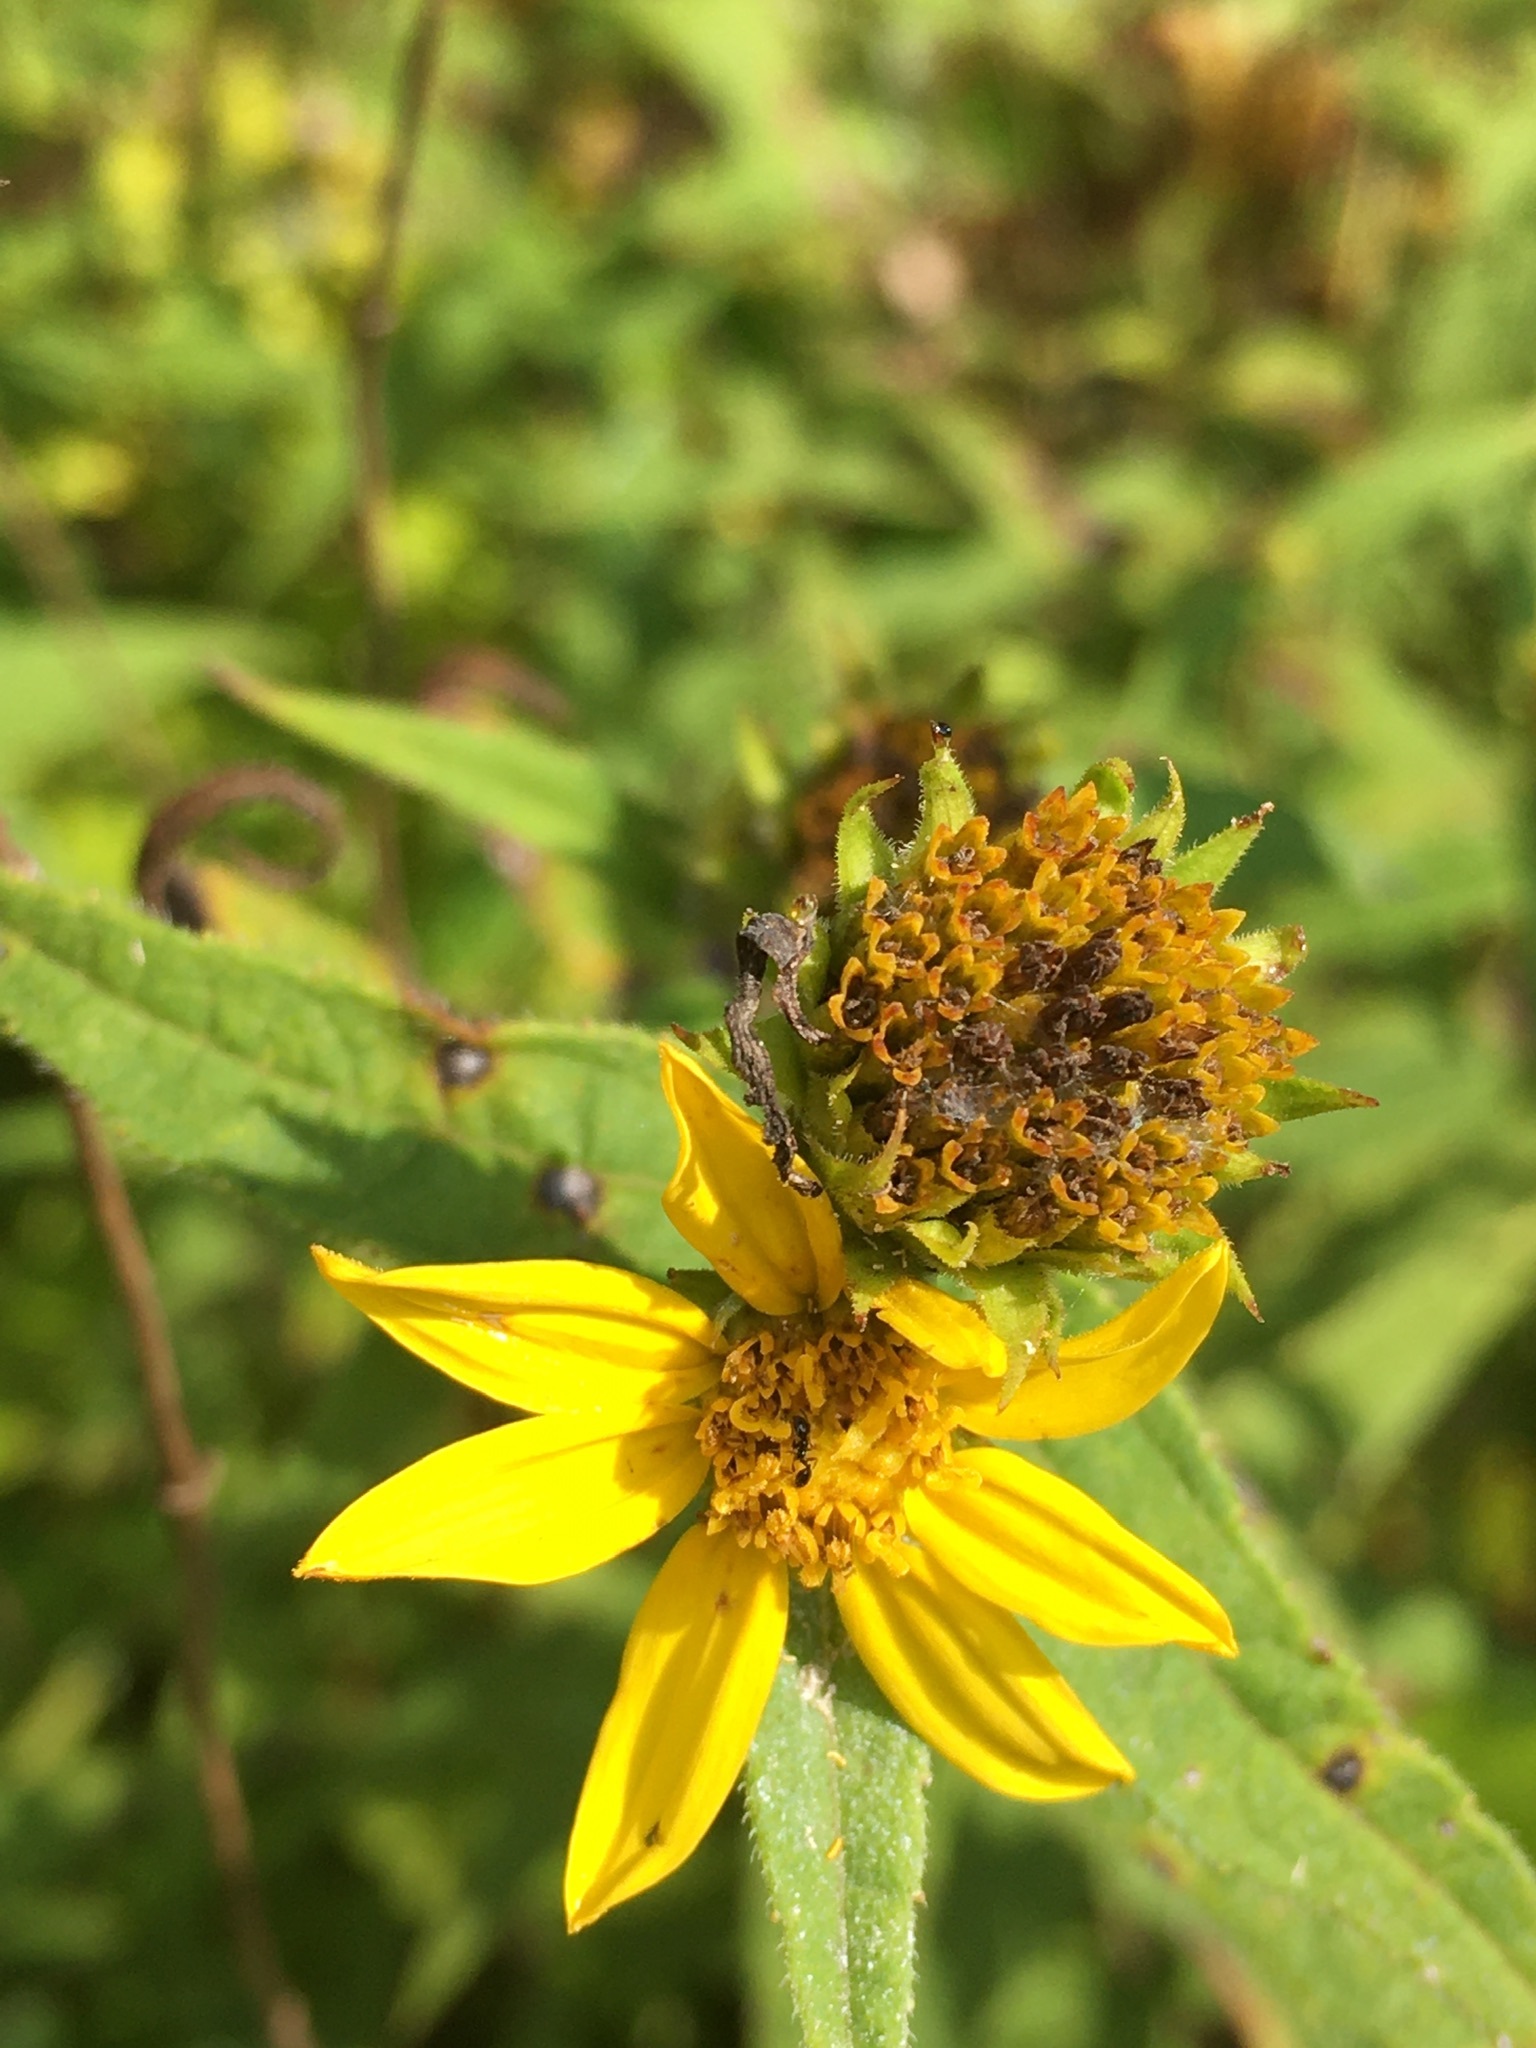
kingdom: Plantae
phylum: Tracheophyta
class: Magnoliopsida
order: Asterales
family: Asteraceae
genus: Helianthus
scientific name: Helianthus divaricatus
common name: Divergent sunflower
